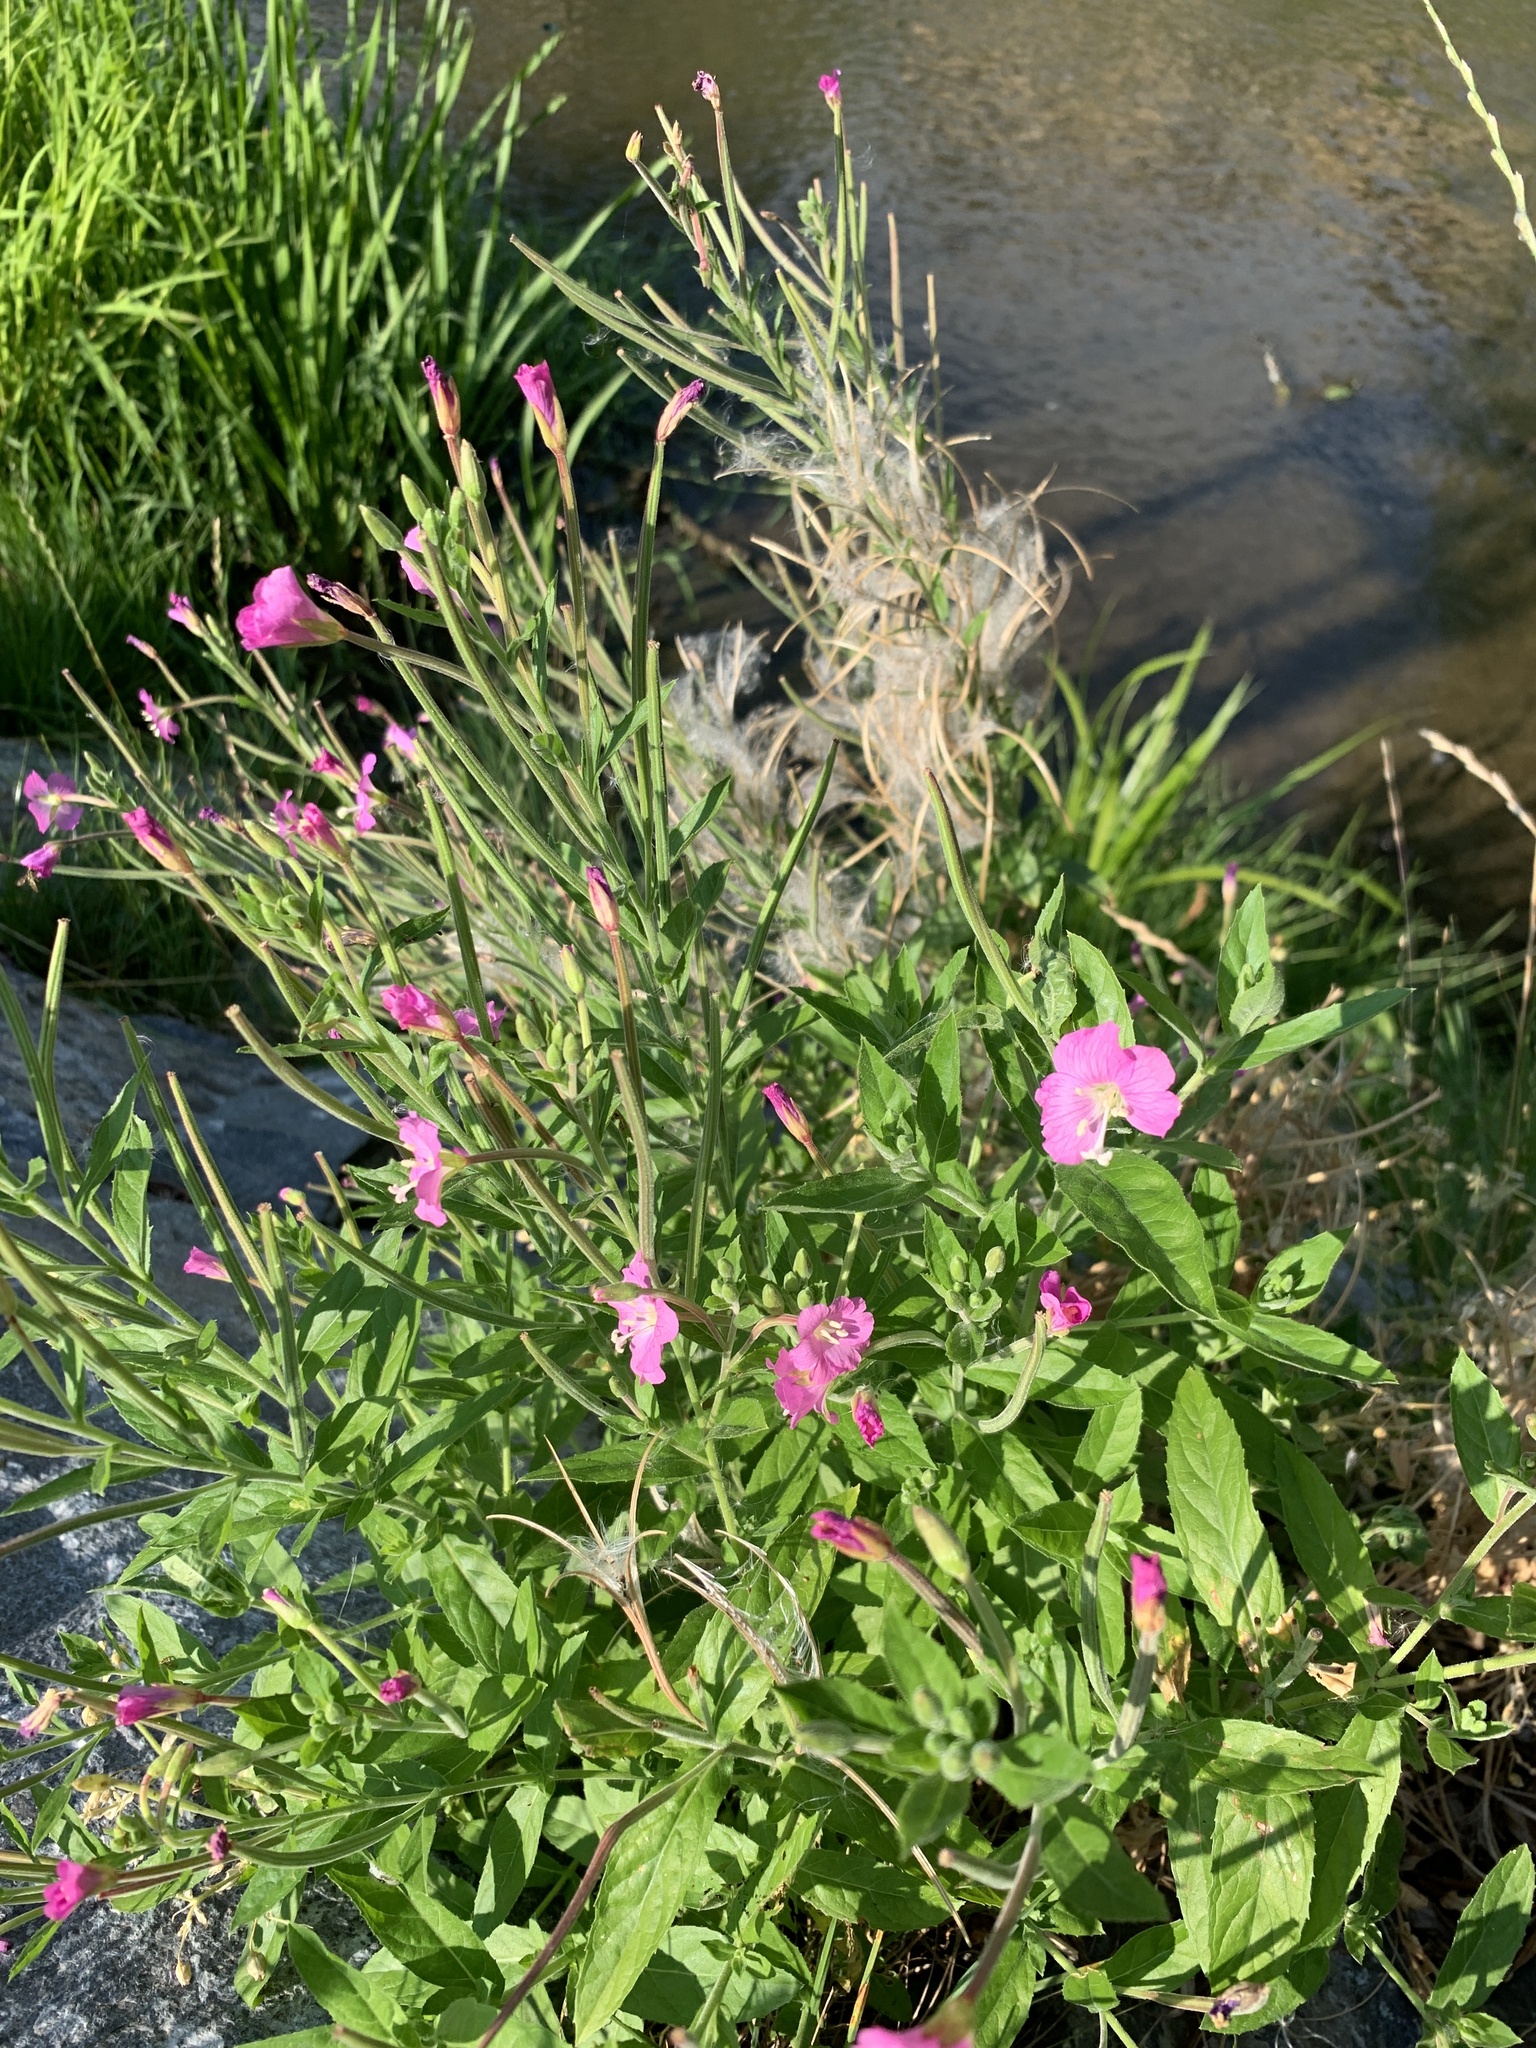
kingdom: Plantae
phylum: Tracheophyta
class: Magnoliopsida
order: Myrtales
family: Onagraceae
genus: Epilobium
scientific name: Epilobium hirsutum
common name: Great willowherb
